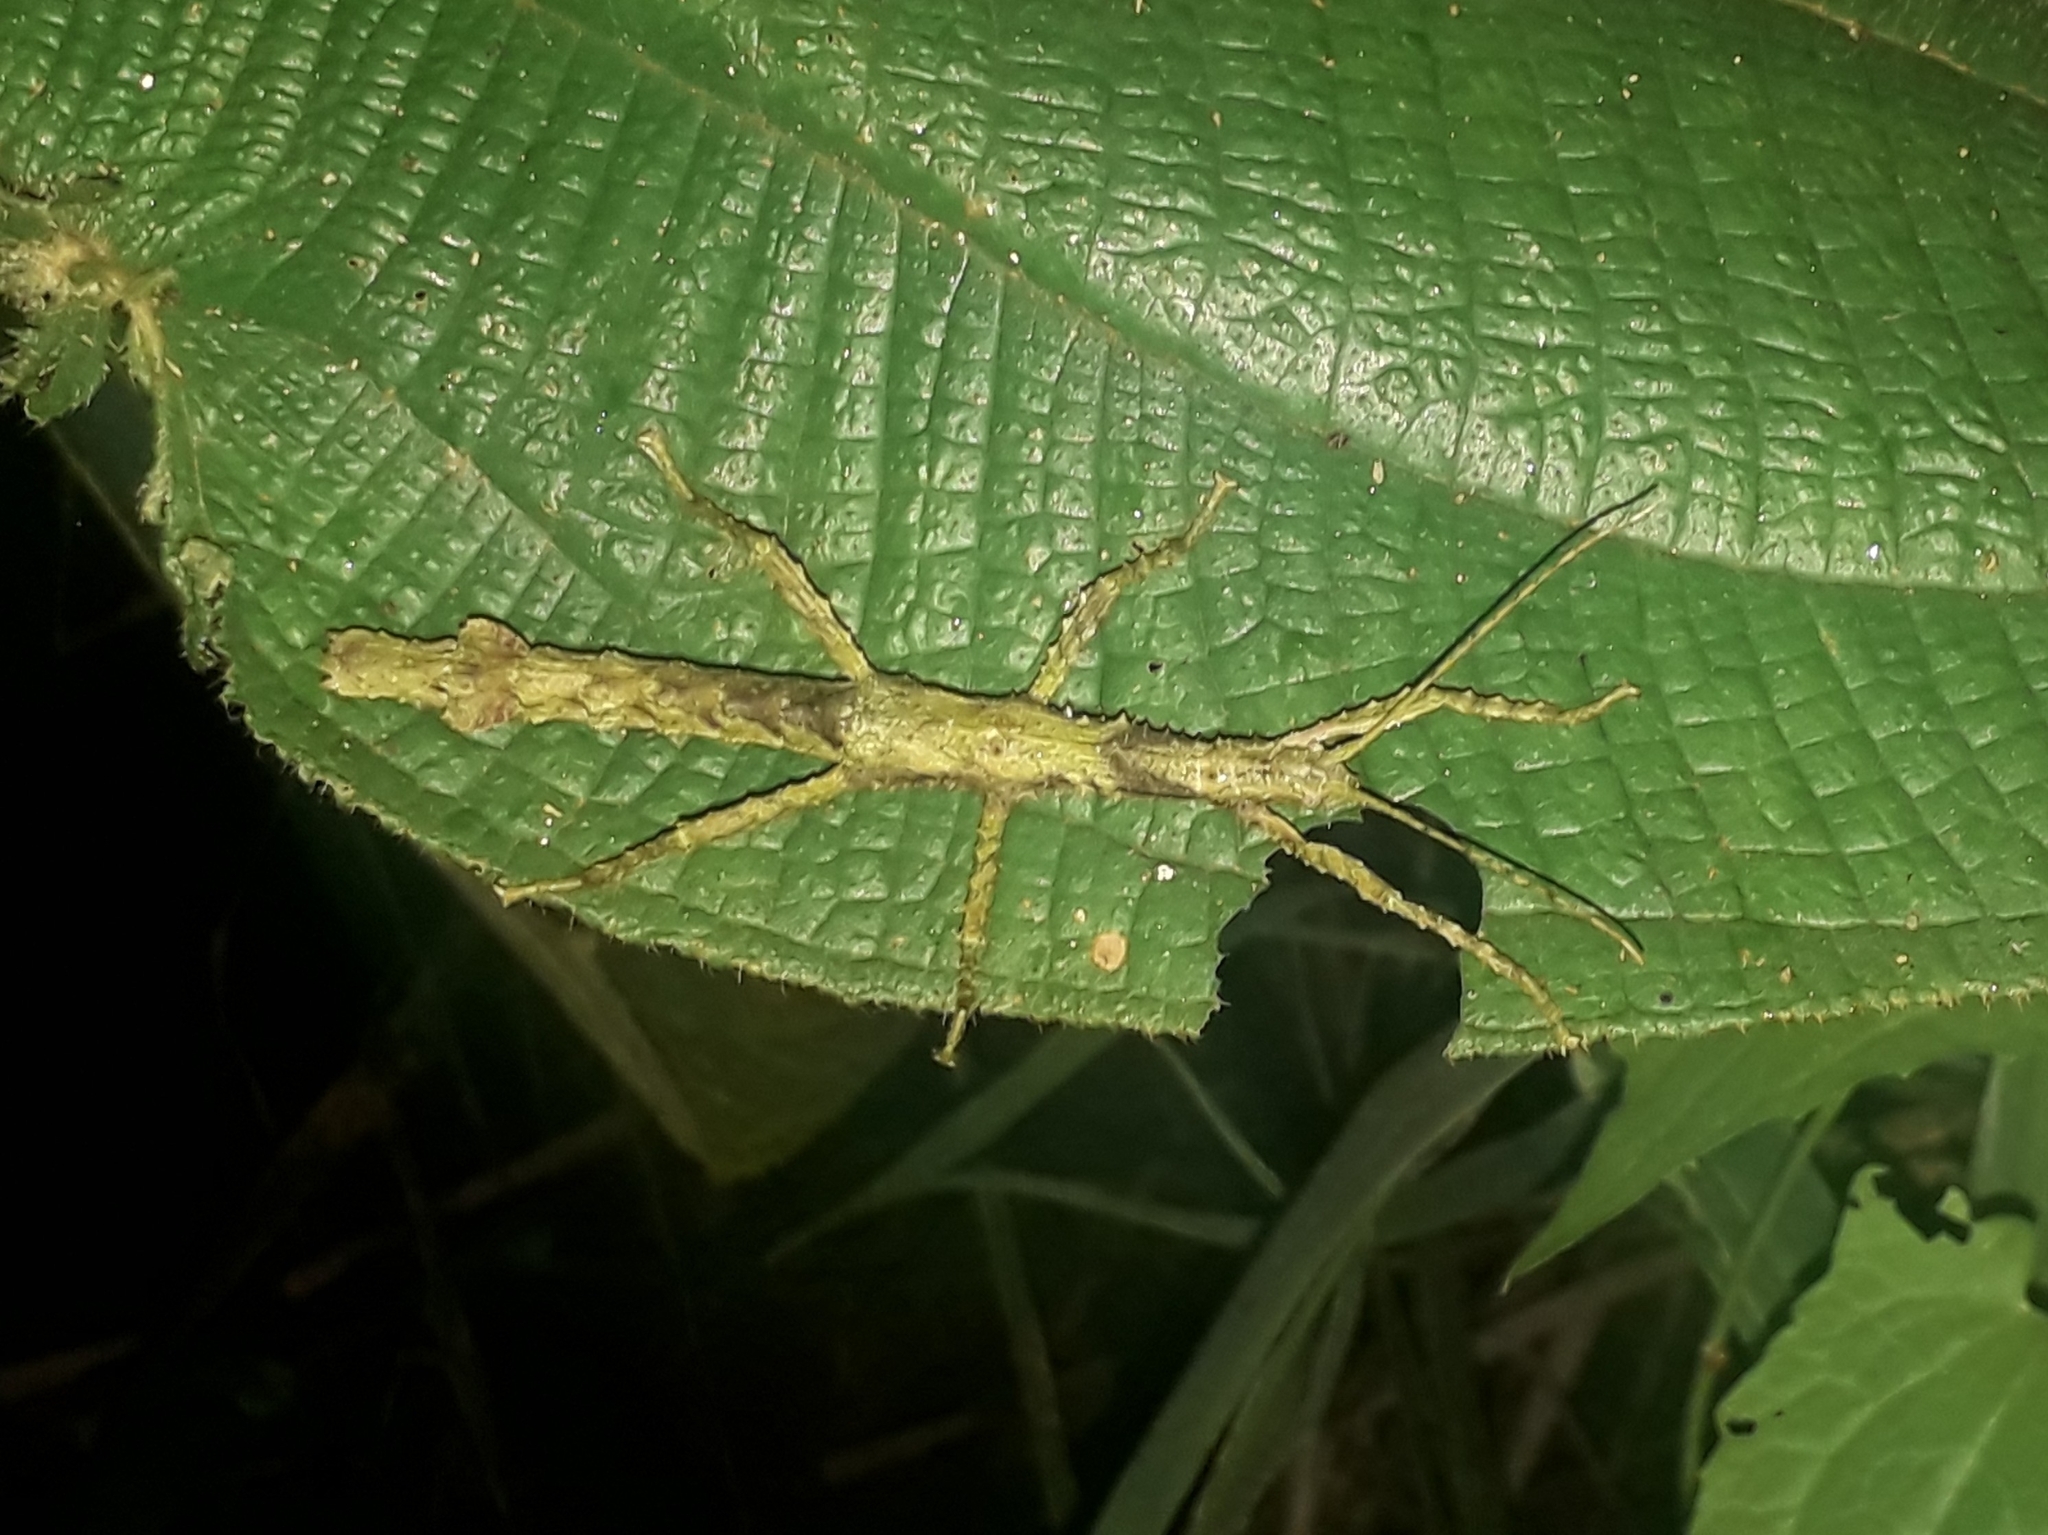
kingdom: Animalia
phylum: Arthropoda
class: Insecta
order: Phasmida
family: Phasmatidae
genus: Lamponius
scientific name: Lamponius guerini
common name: Guadeloupe stick insect
